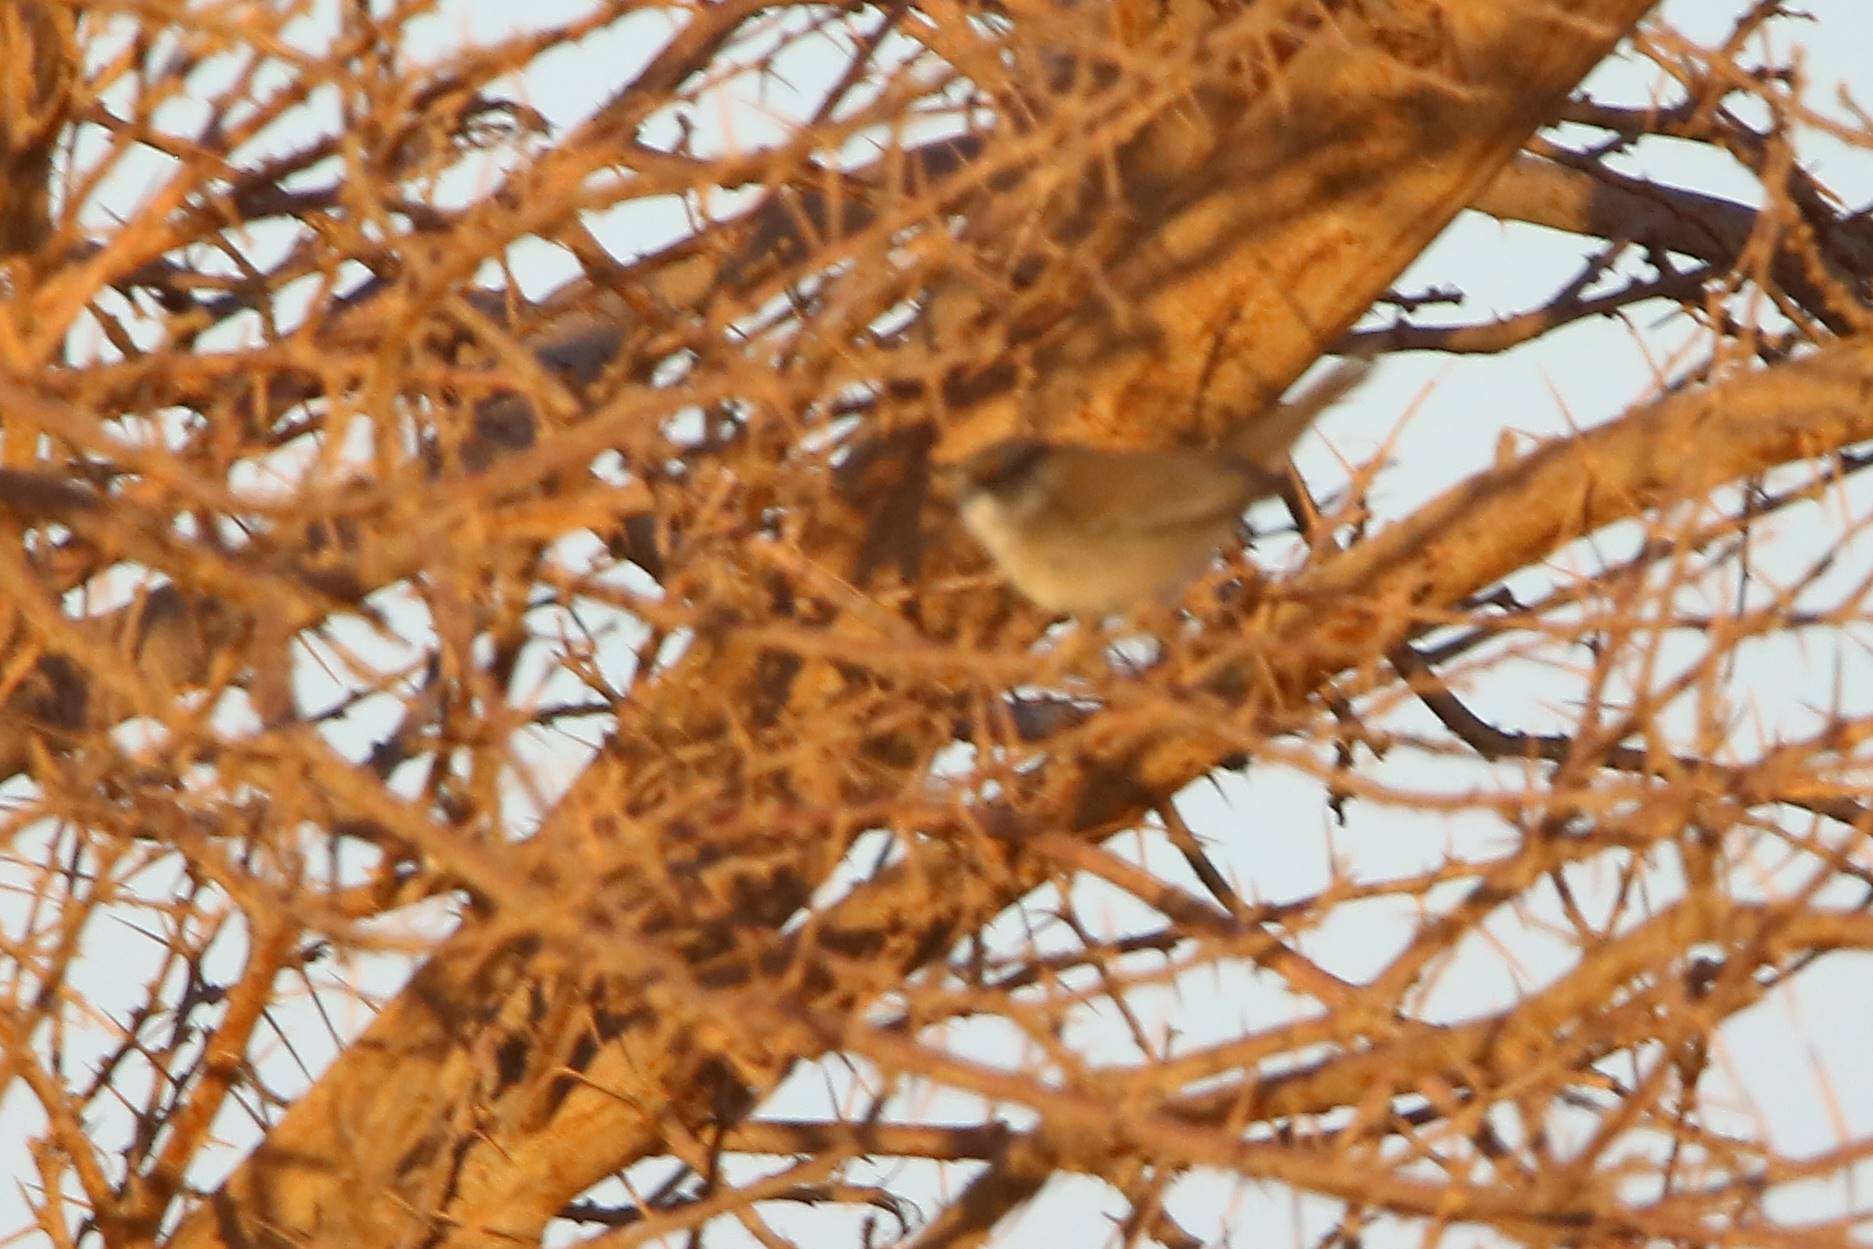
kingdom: Animalia
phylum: Chordata
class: Aves
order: Passeriformes
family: Sylviidae
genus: Curruca
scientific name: Curruca melanocephala
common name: Sardinian warbler
